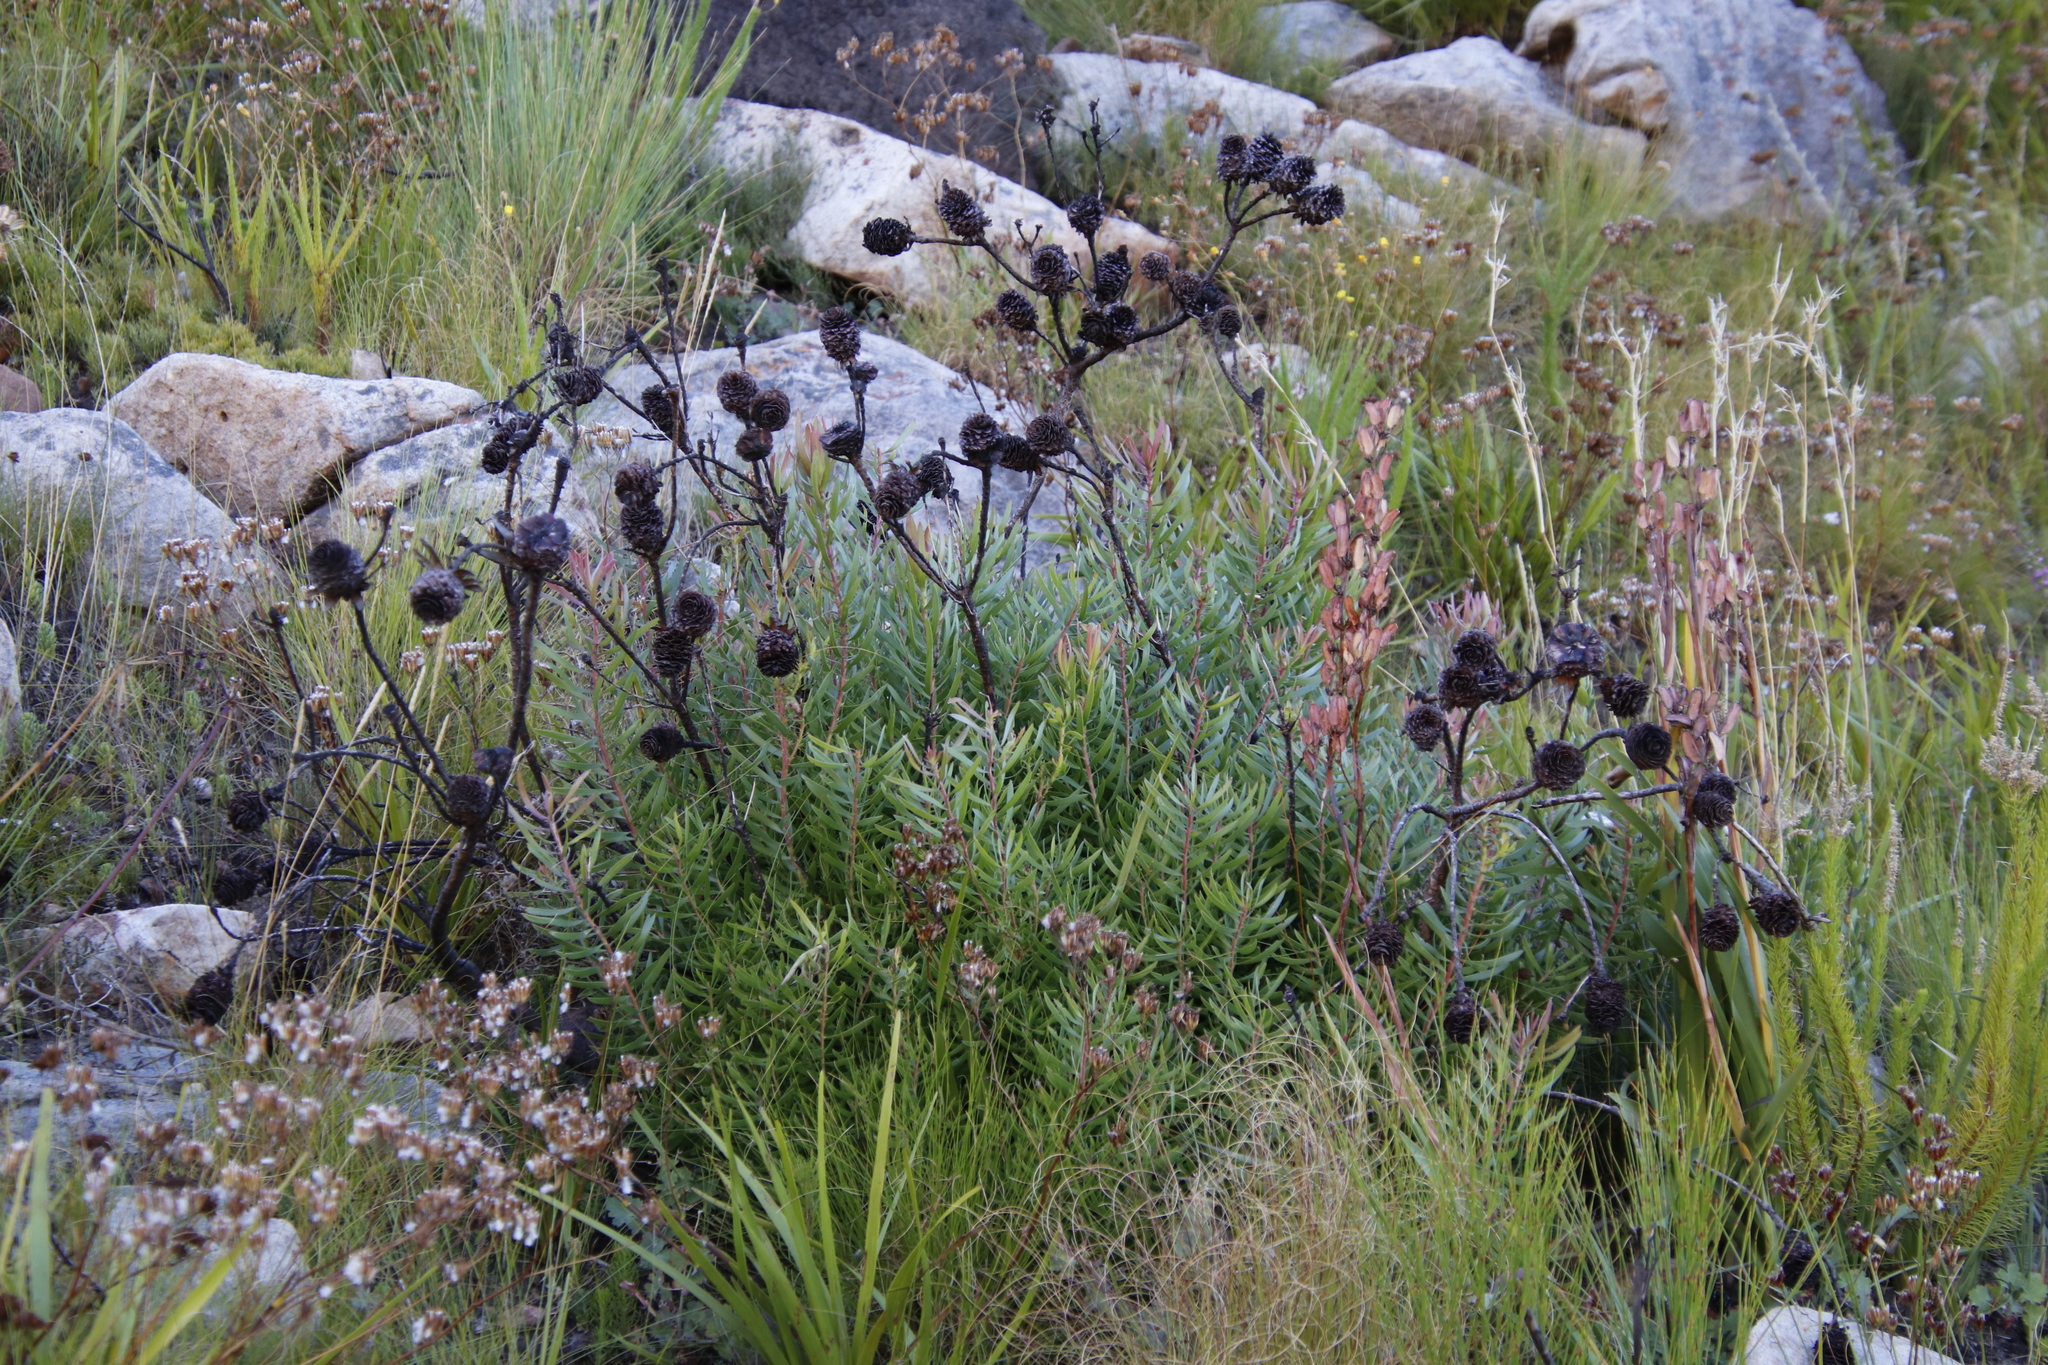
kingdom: Plantae
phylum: Tracheophyta
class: Magnoliopsida
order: Proteales
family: Proteaceae
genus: Leucadendron
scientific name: Leucadendron spissifolium
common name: Spear-leaf conebush
